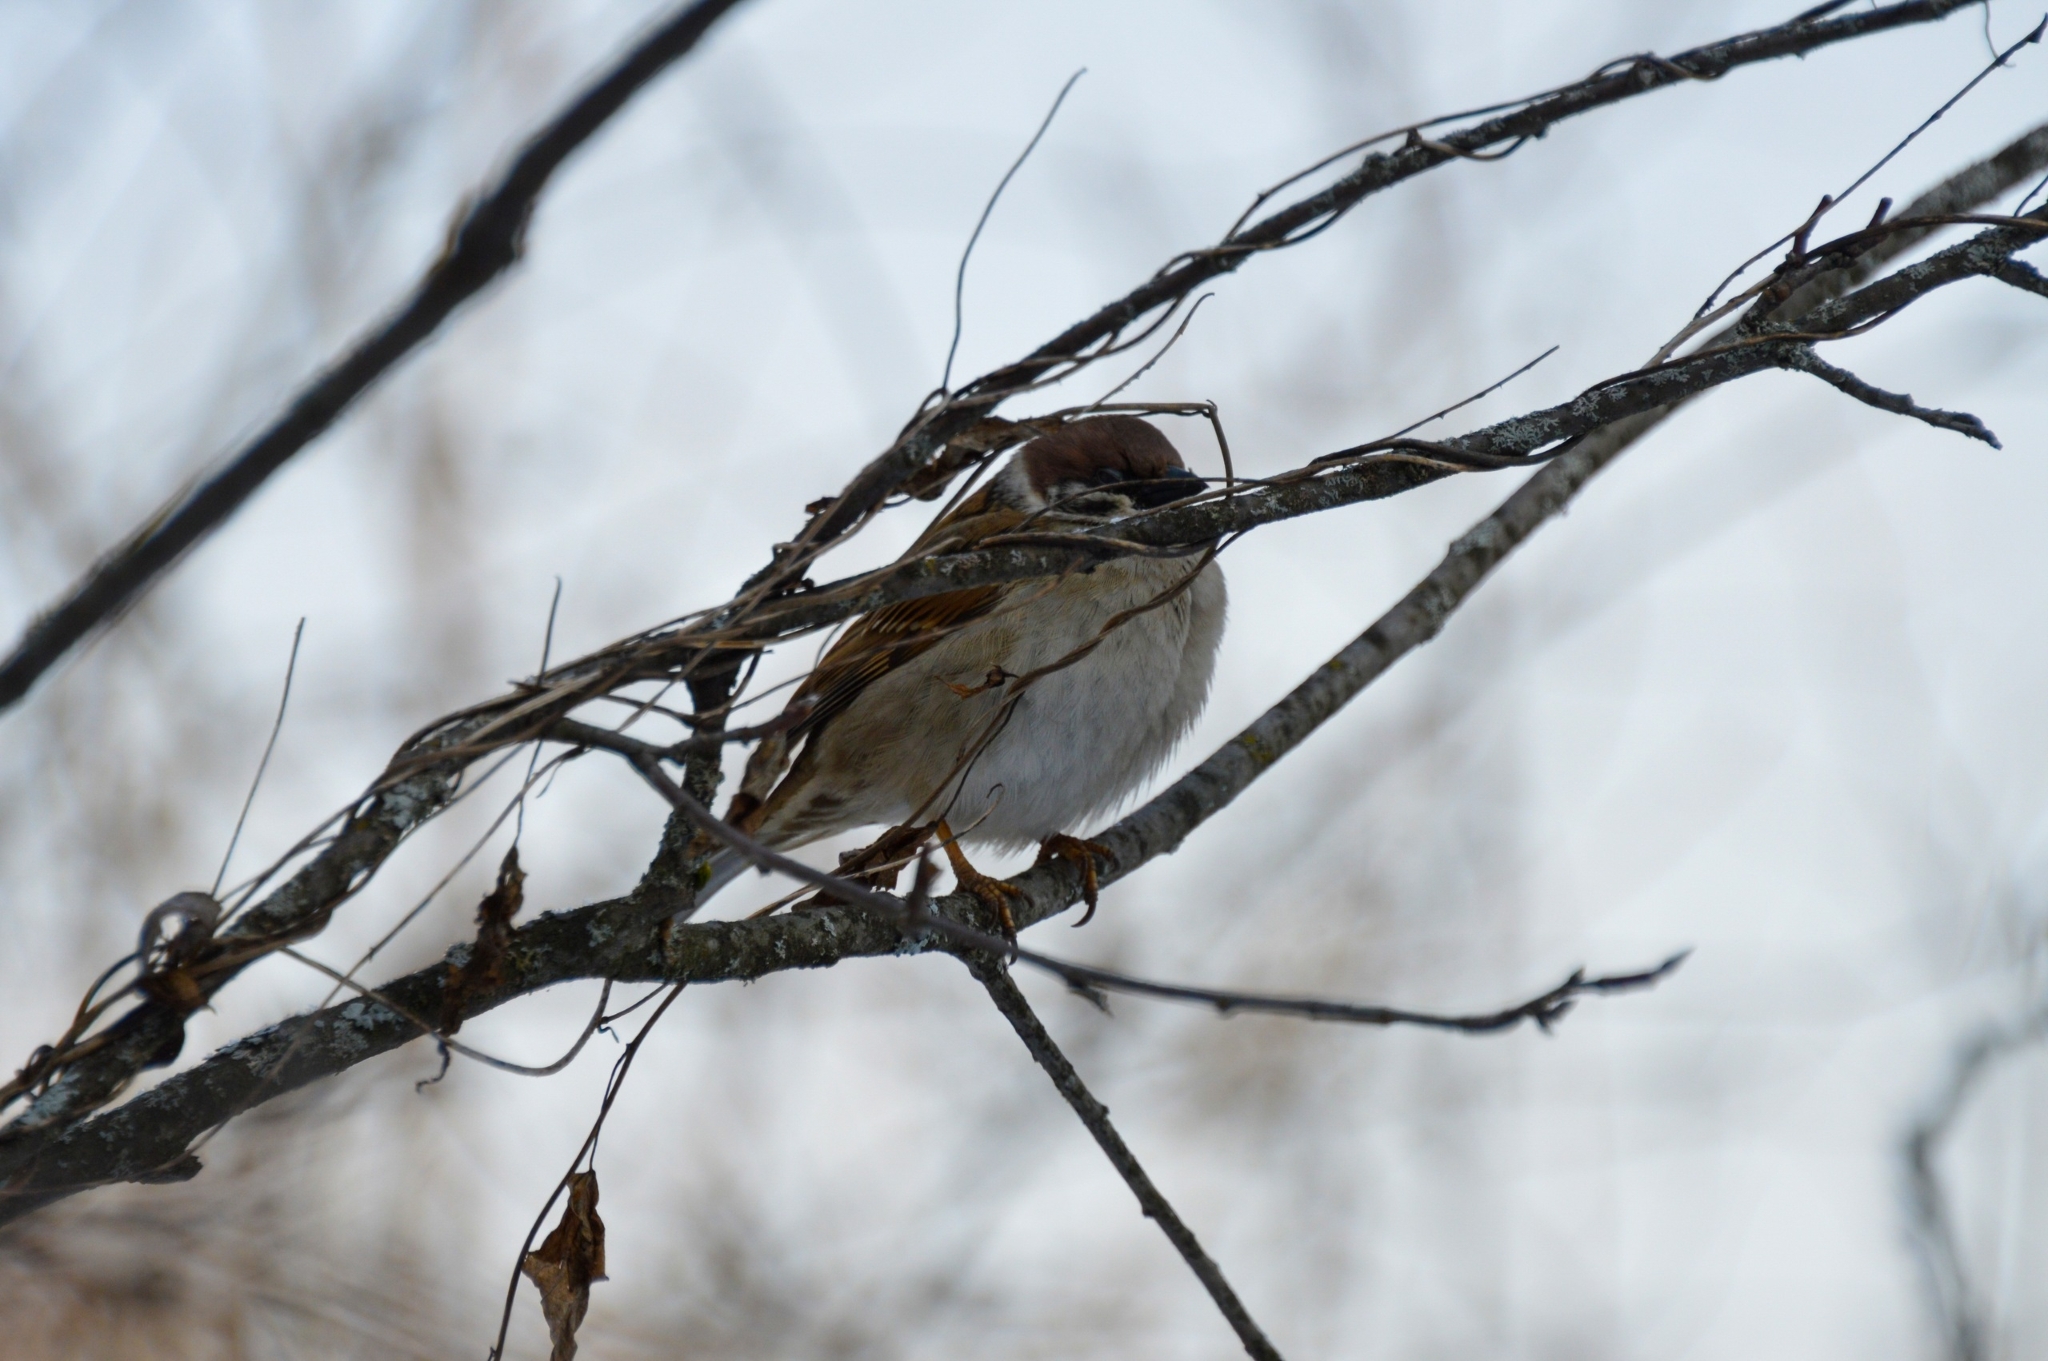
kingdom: Animalia
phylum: Chordata
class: Aves
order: Passeriformes
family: Passeridae
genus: Passer
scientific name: Passer montanus
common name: Eurasian tree sparrow
